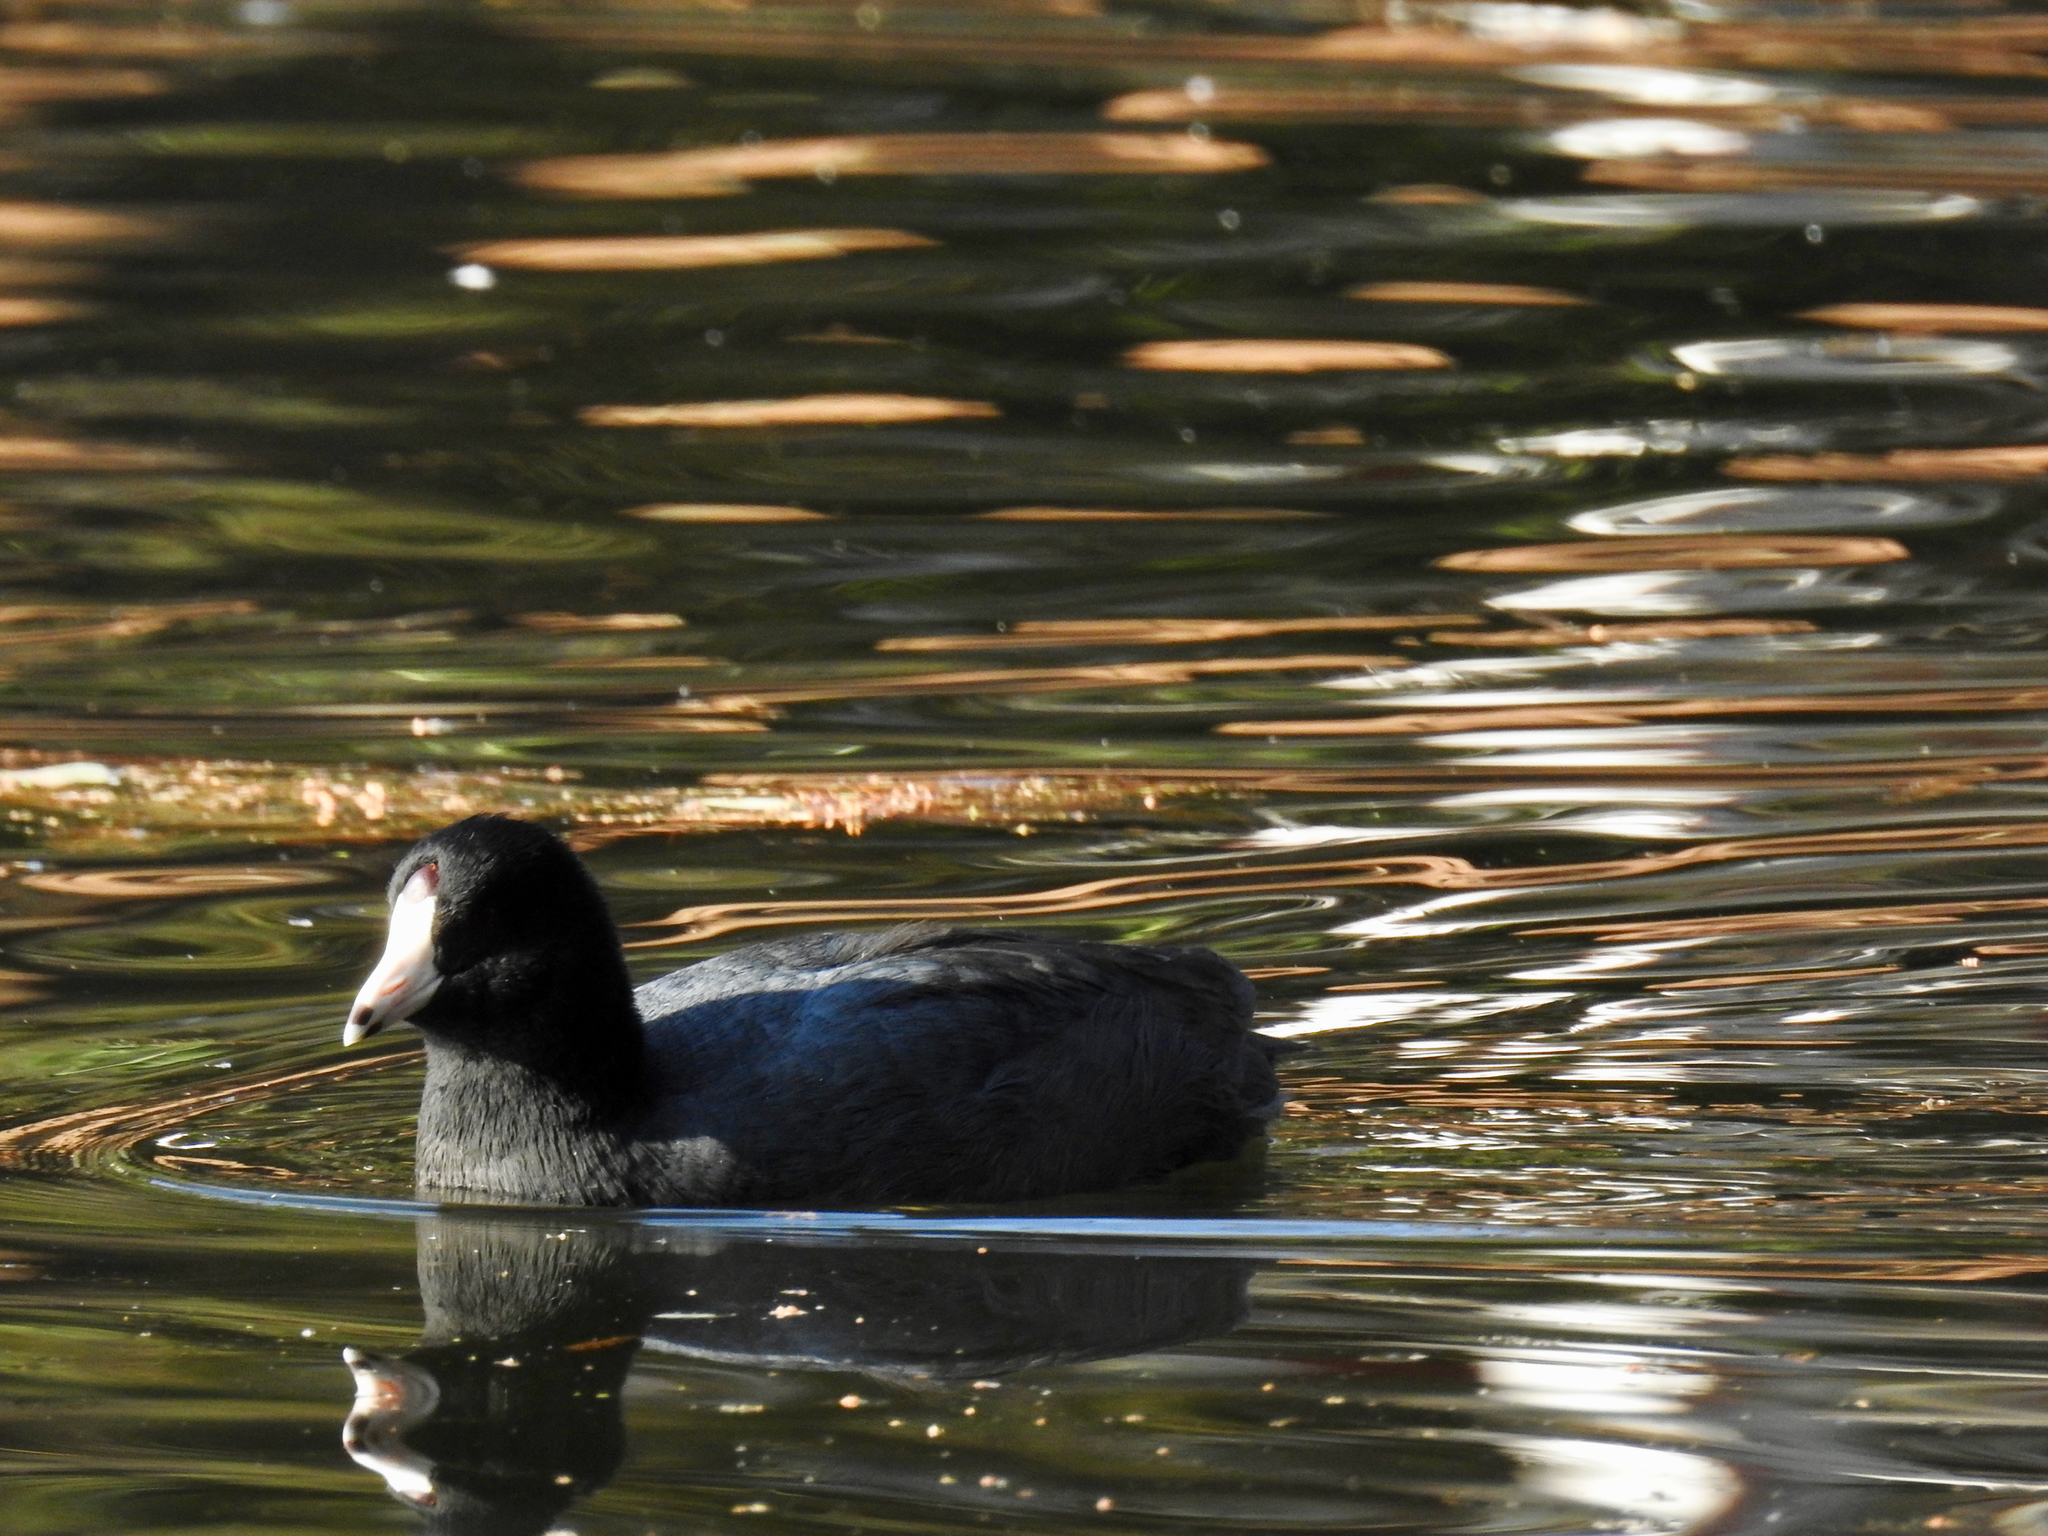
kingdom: Animalia
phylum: Chordata
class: Aves
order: Gruiformes
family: Rallidae
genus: Fulica
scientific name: Fulica americana
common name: American coot
